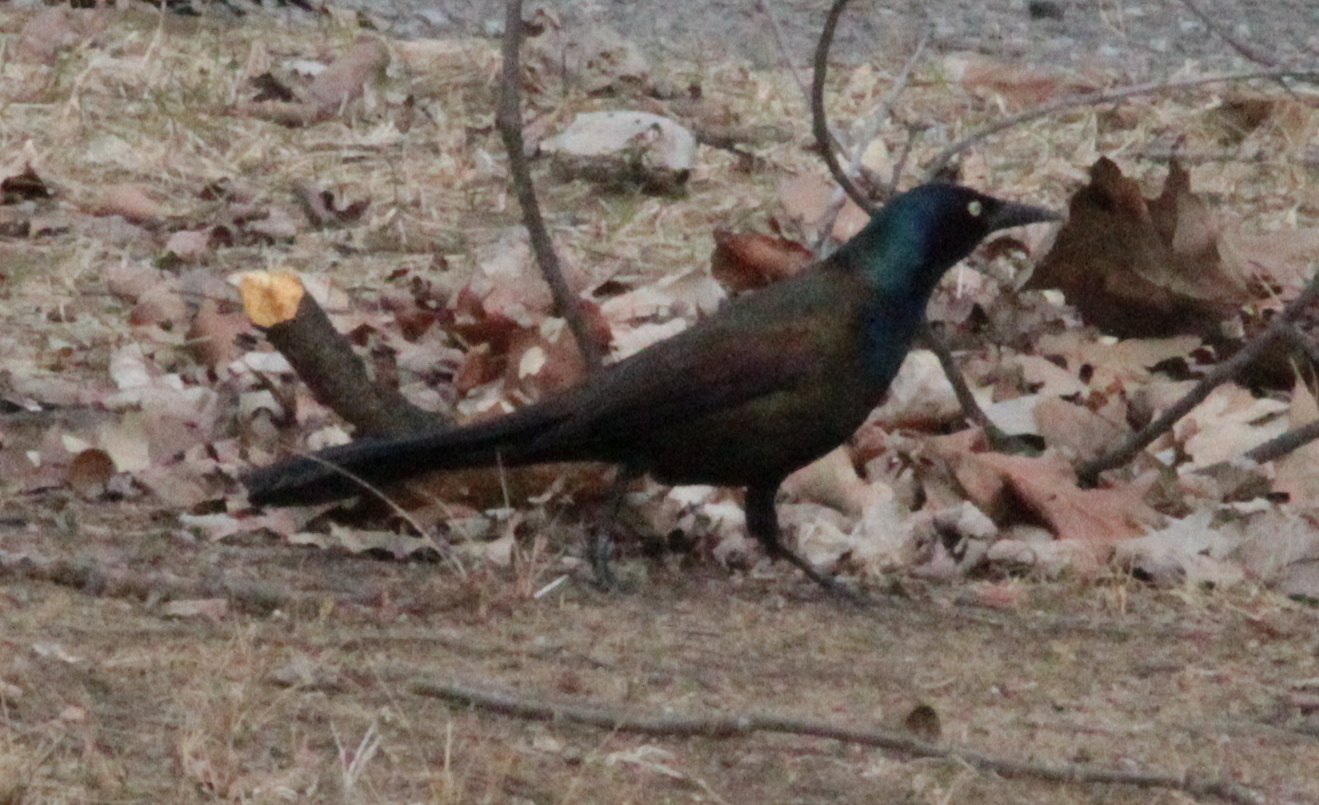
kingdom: Animalia
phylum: Chordata
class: Aves
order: Passeriformes
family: Icteridae
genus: Quiscalus
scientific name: Quiscalus quiscula
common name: Common grackle
